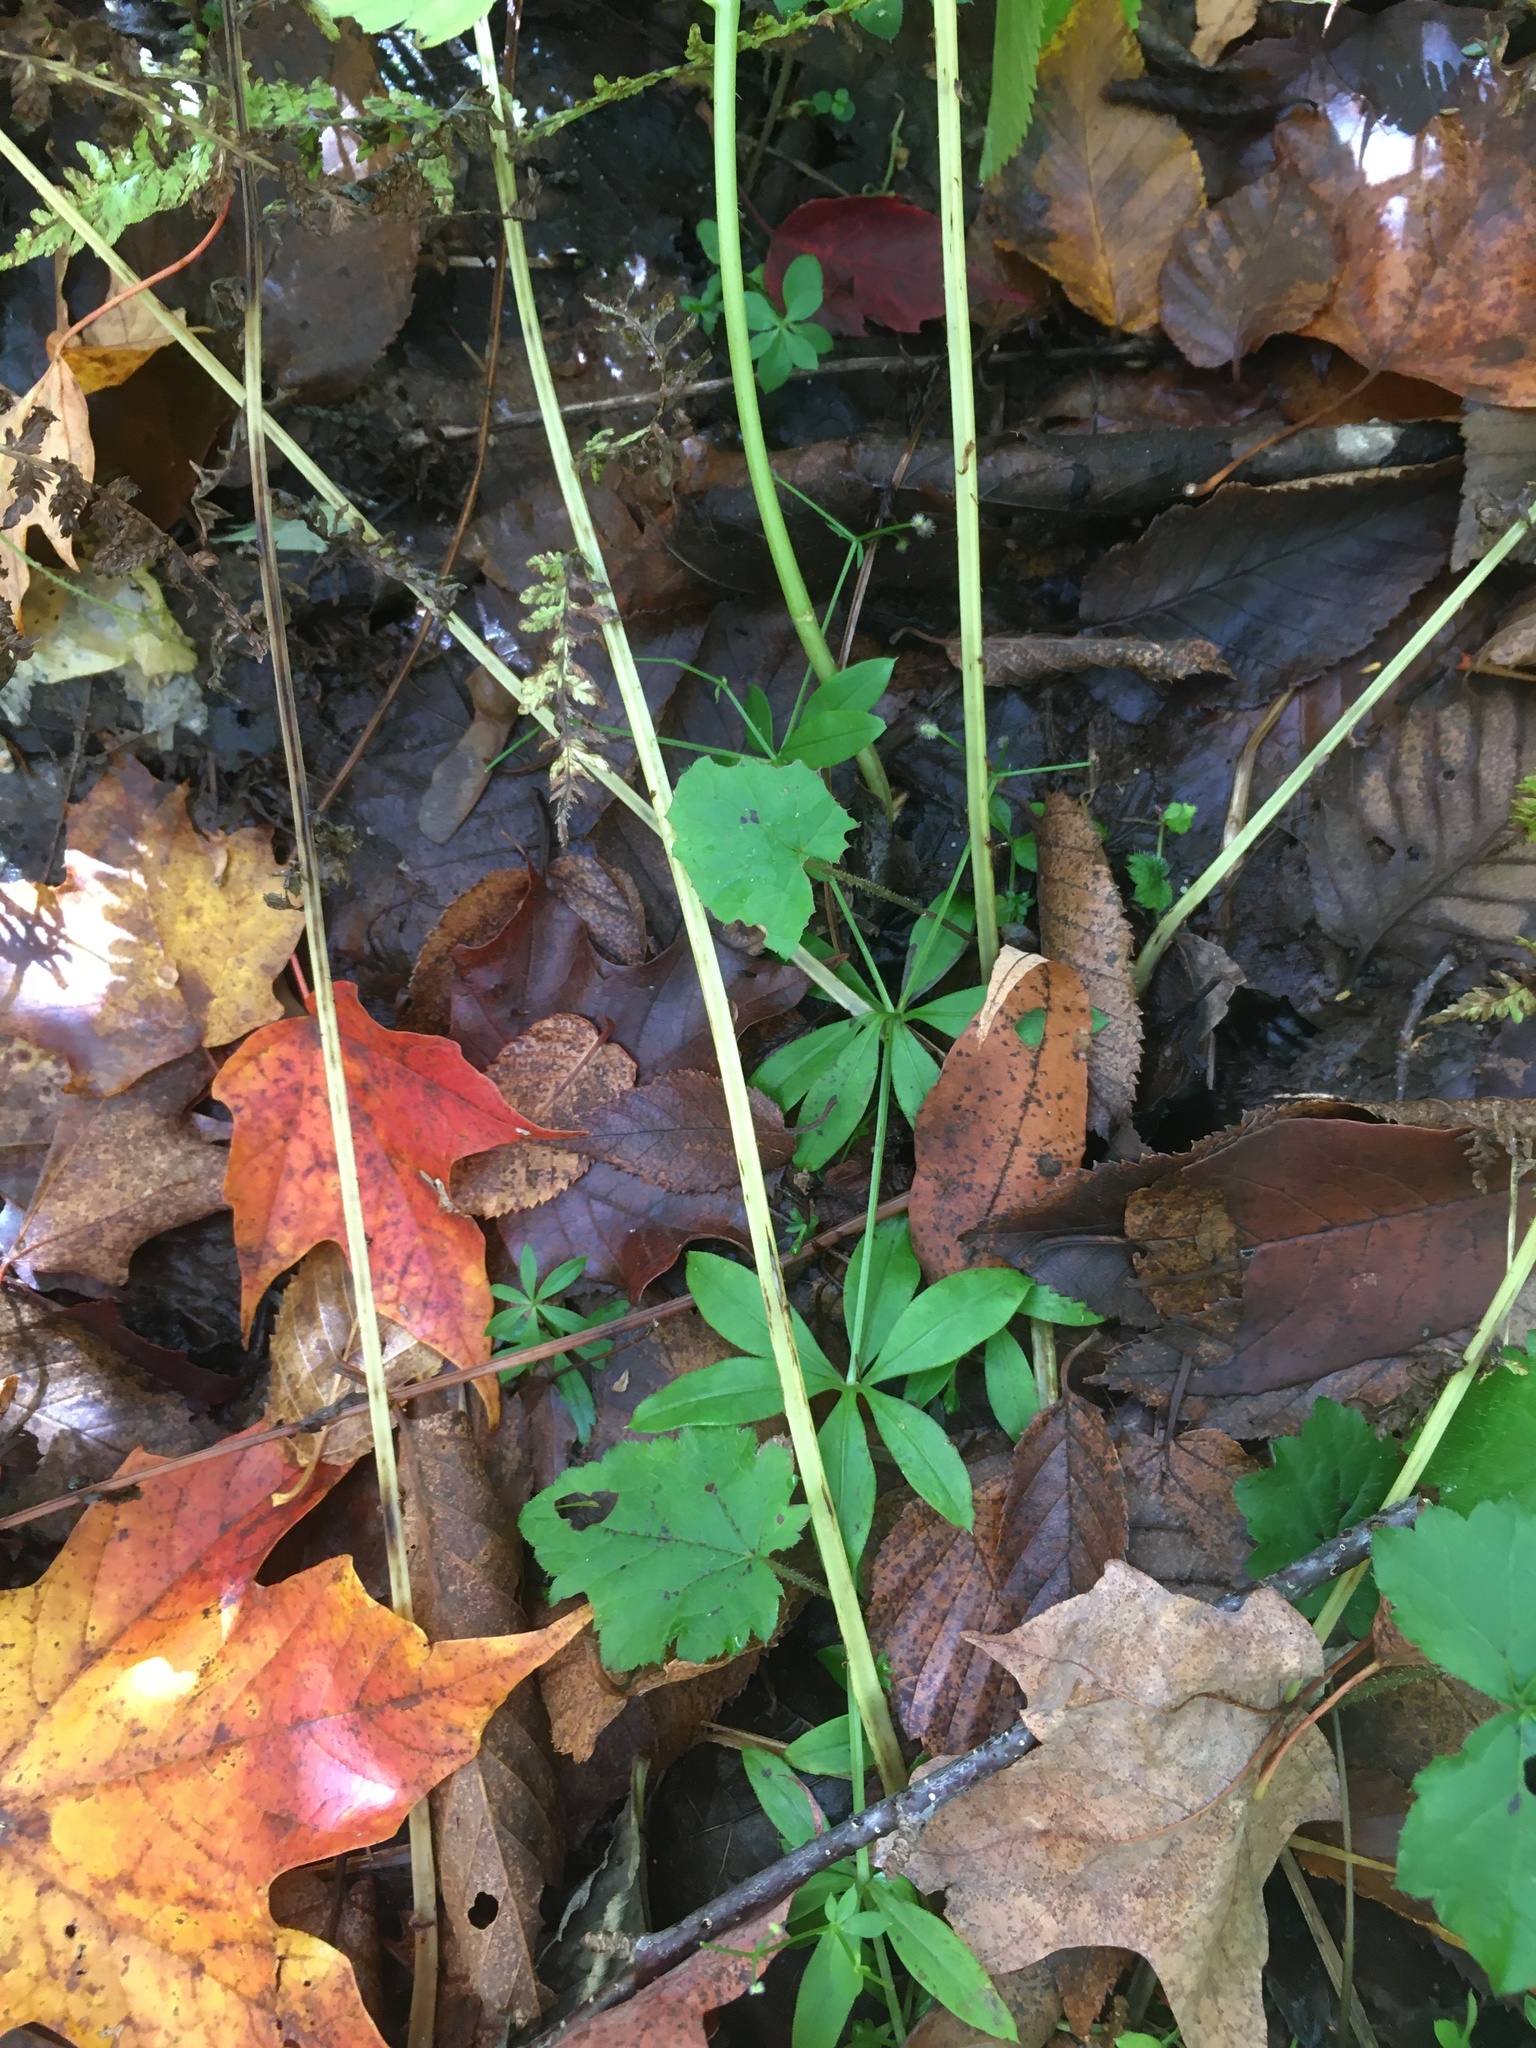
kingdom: Plantae
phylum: Tracheophyta
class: Magnoliopsida
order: Gentianales
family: Rubiaceae
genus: Galium
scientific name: Galium triflorum
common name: Fragrant bedstraw
